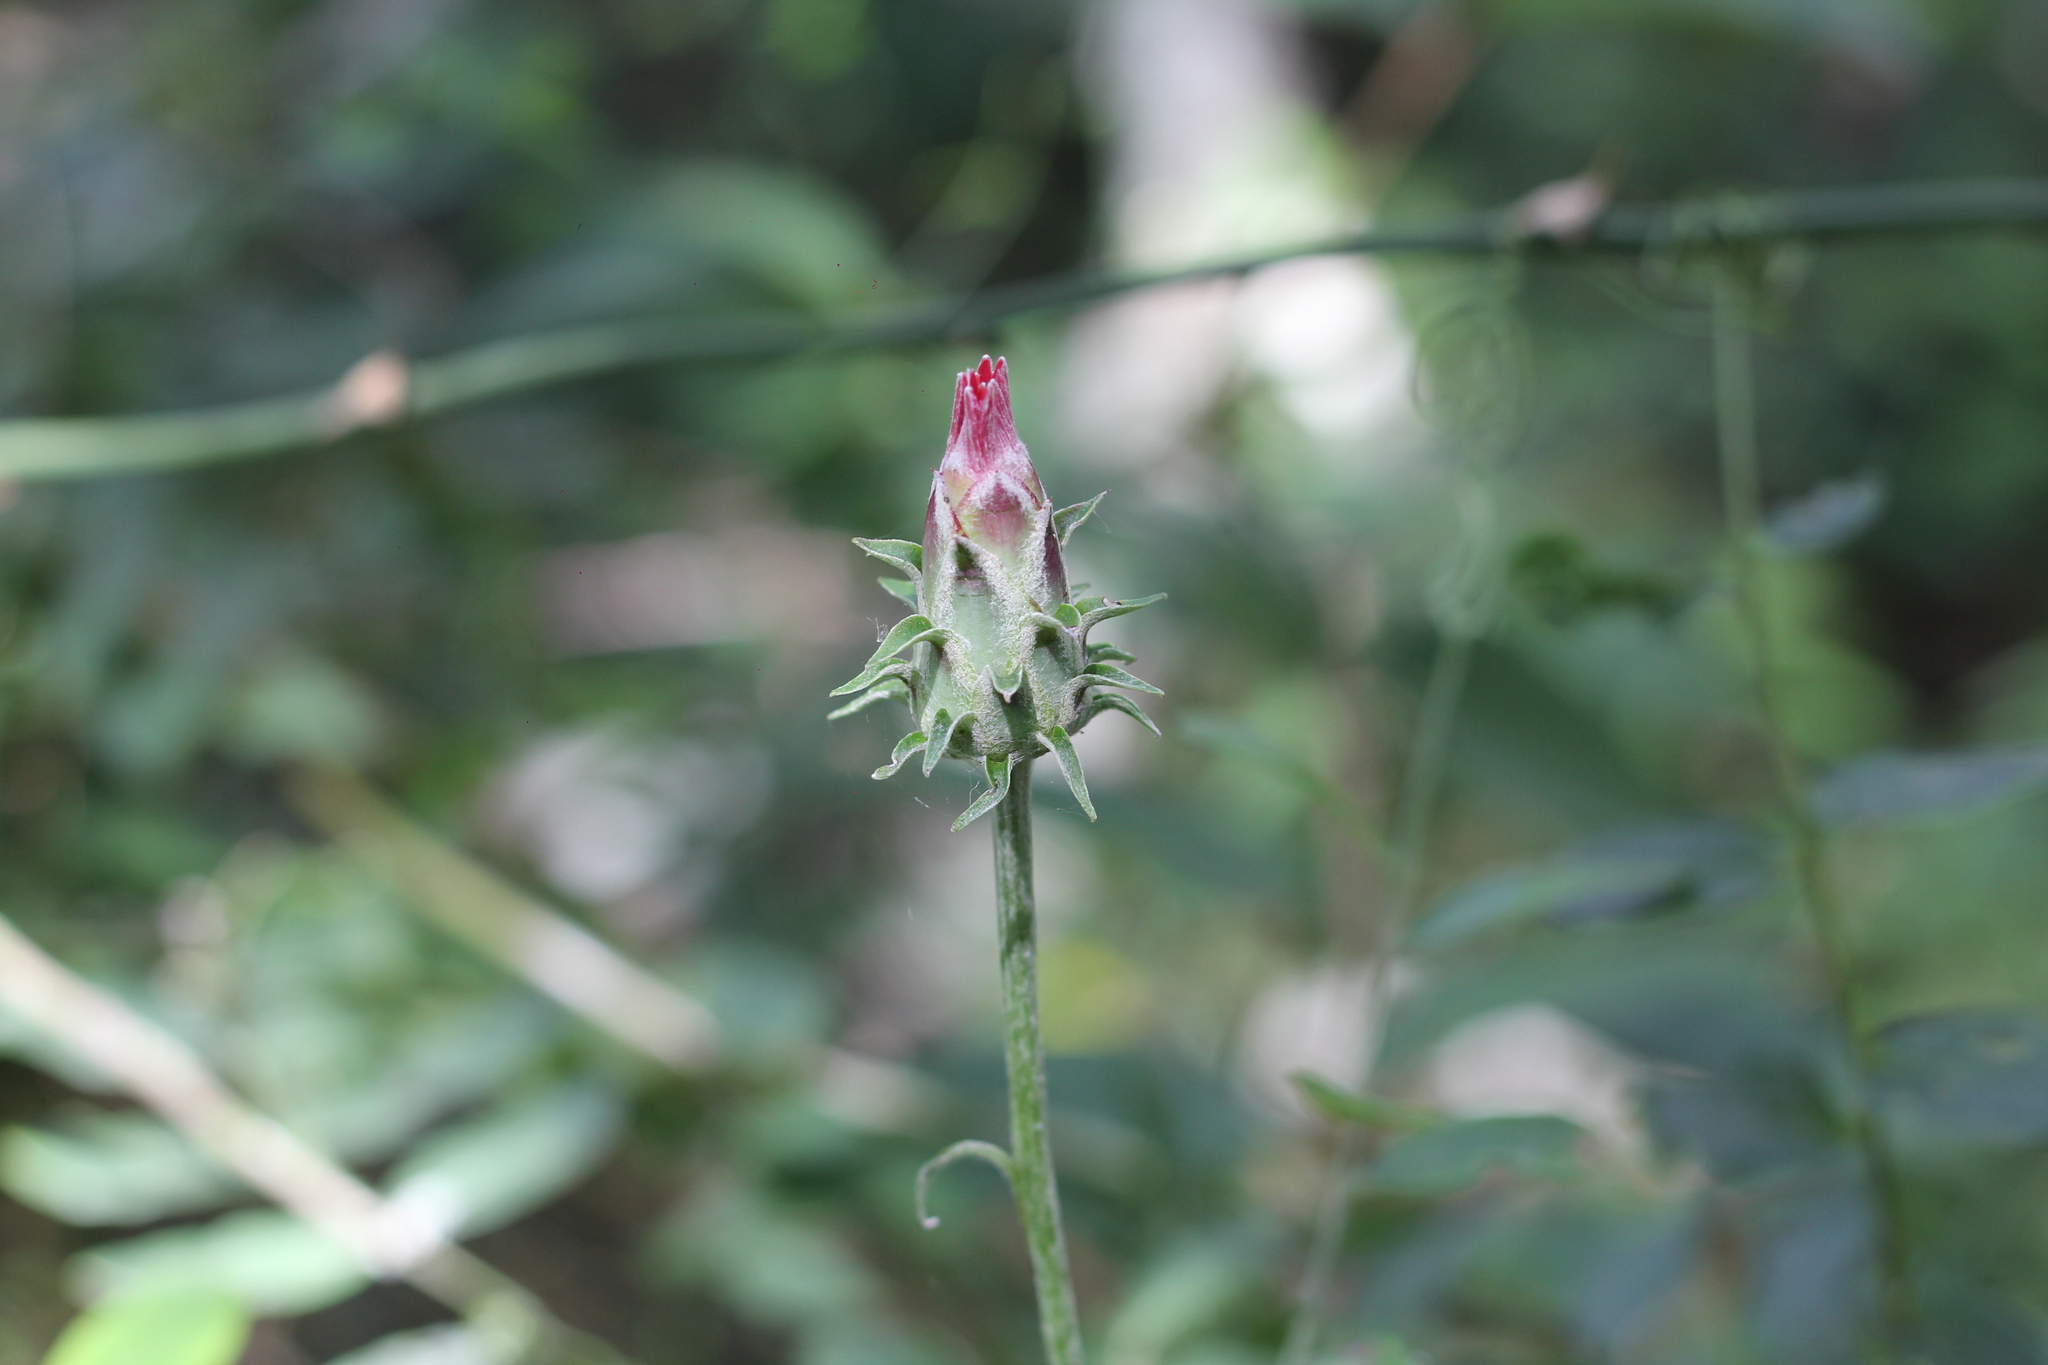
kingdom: Plantae
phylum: Tracheophyta
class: Magnoliopsida
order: Asterales
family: Asteraceae
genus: Mutisia
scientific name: Mutisia coccinea
